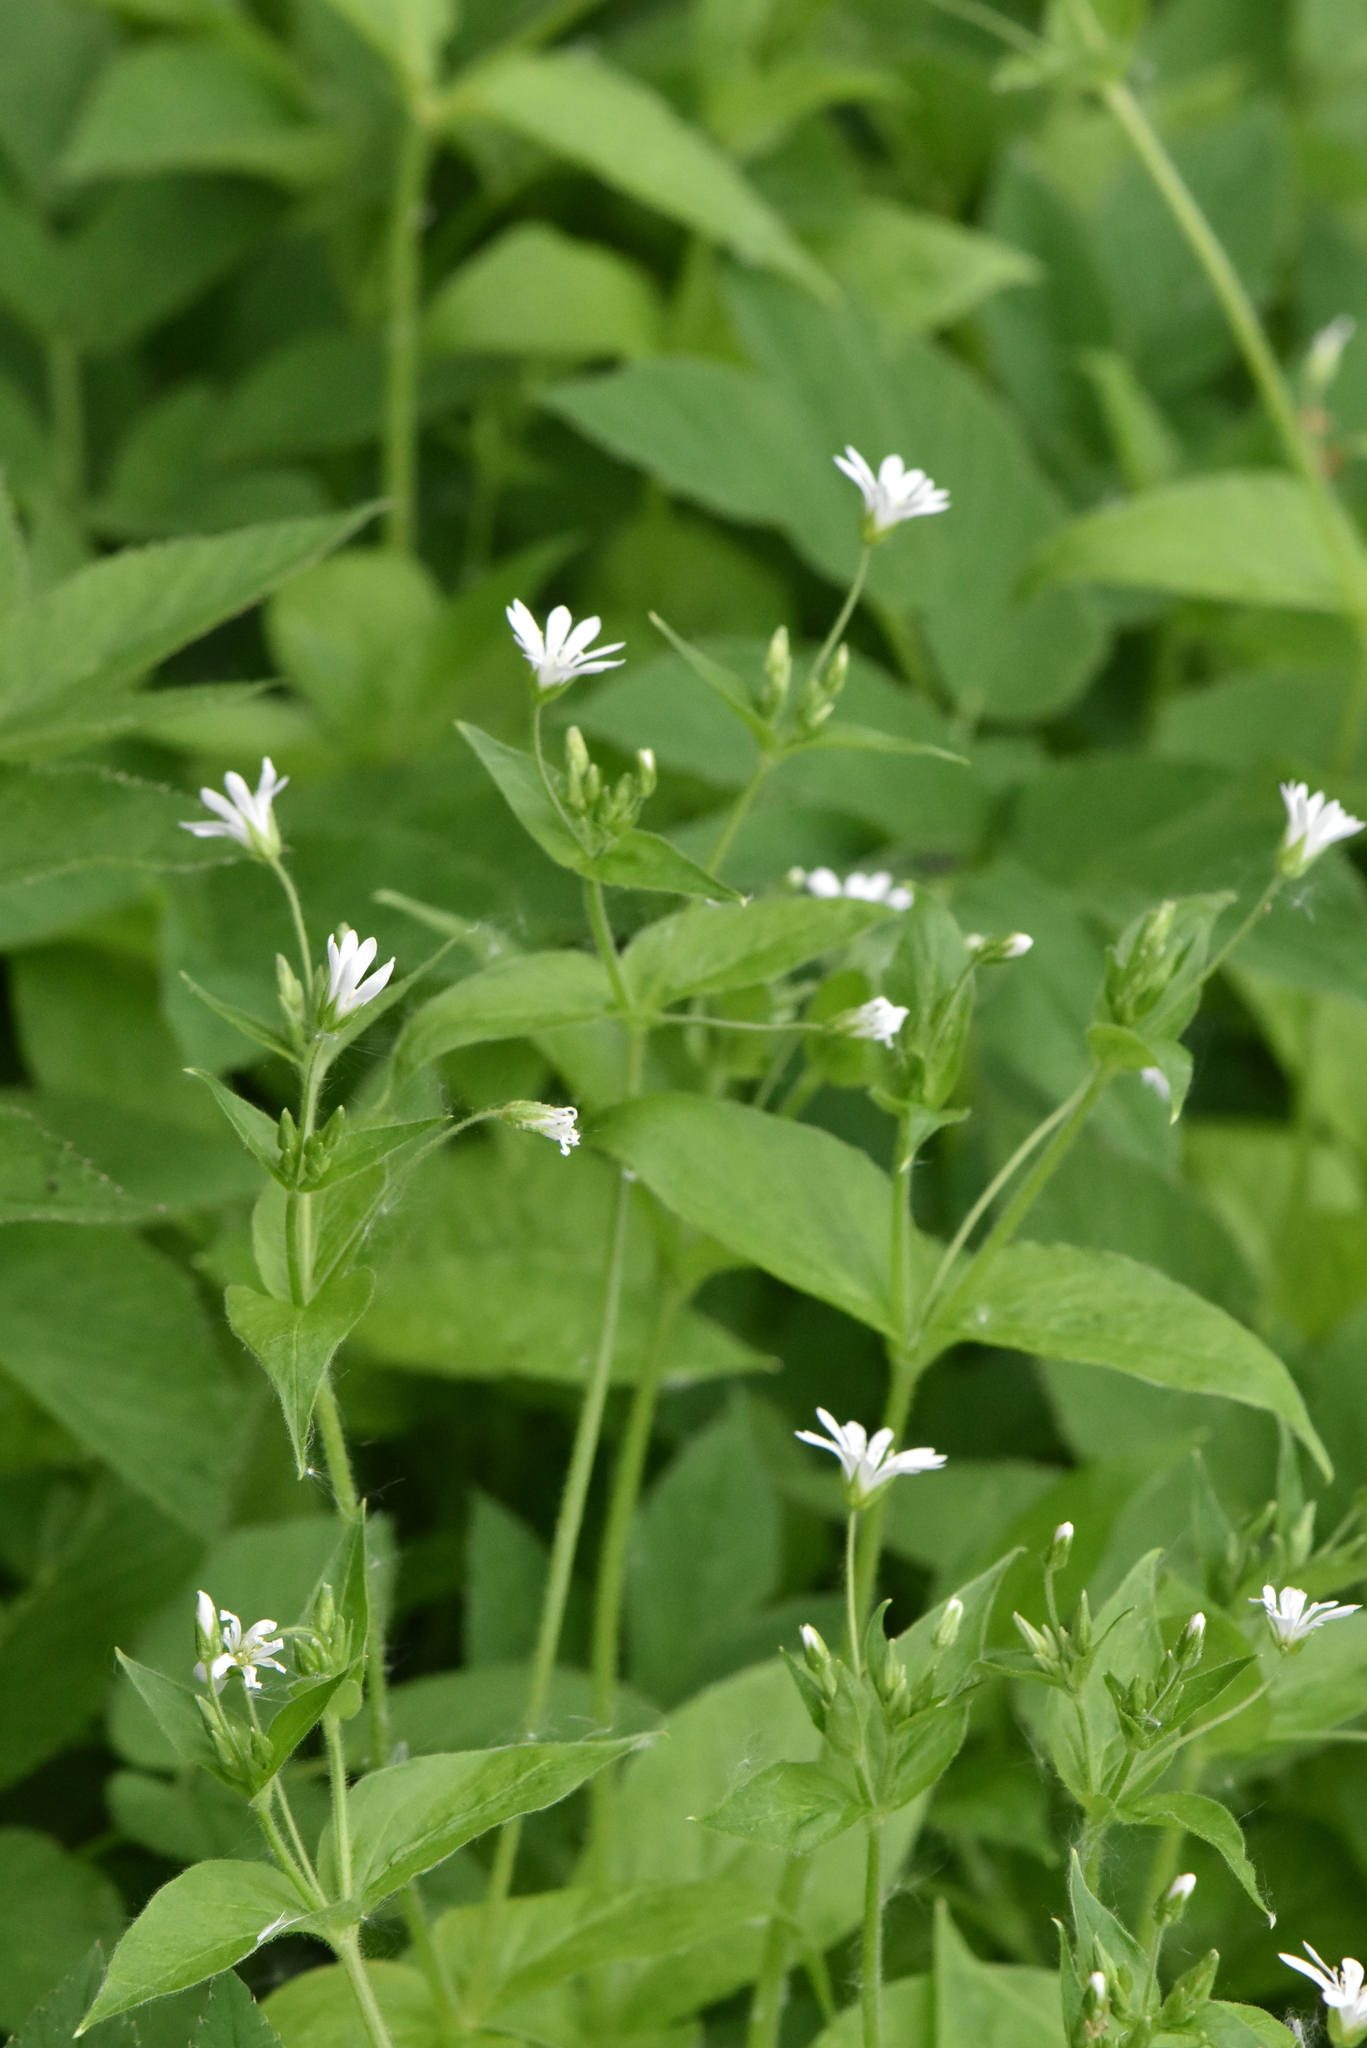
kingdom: Plantae
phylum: Tracheophyta
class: Magnoliopsida
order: Caryophyllales
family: Caryophyllaceae
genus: Stellaria
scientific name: Stellaria nemorum
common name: Wood stitchwort
